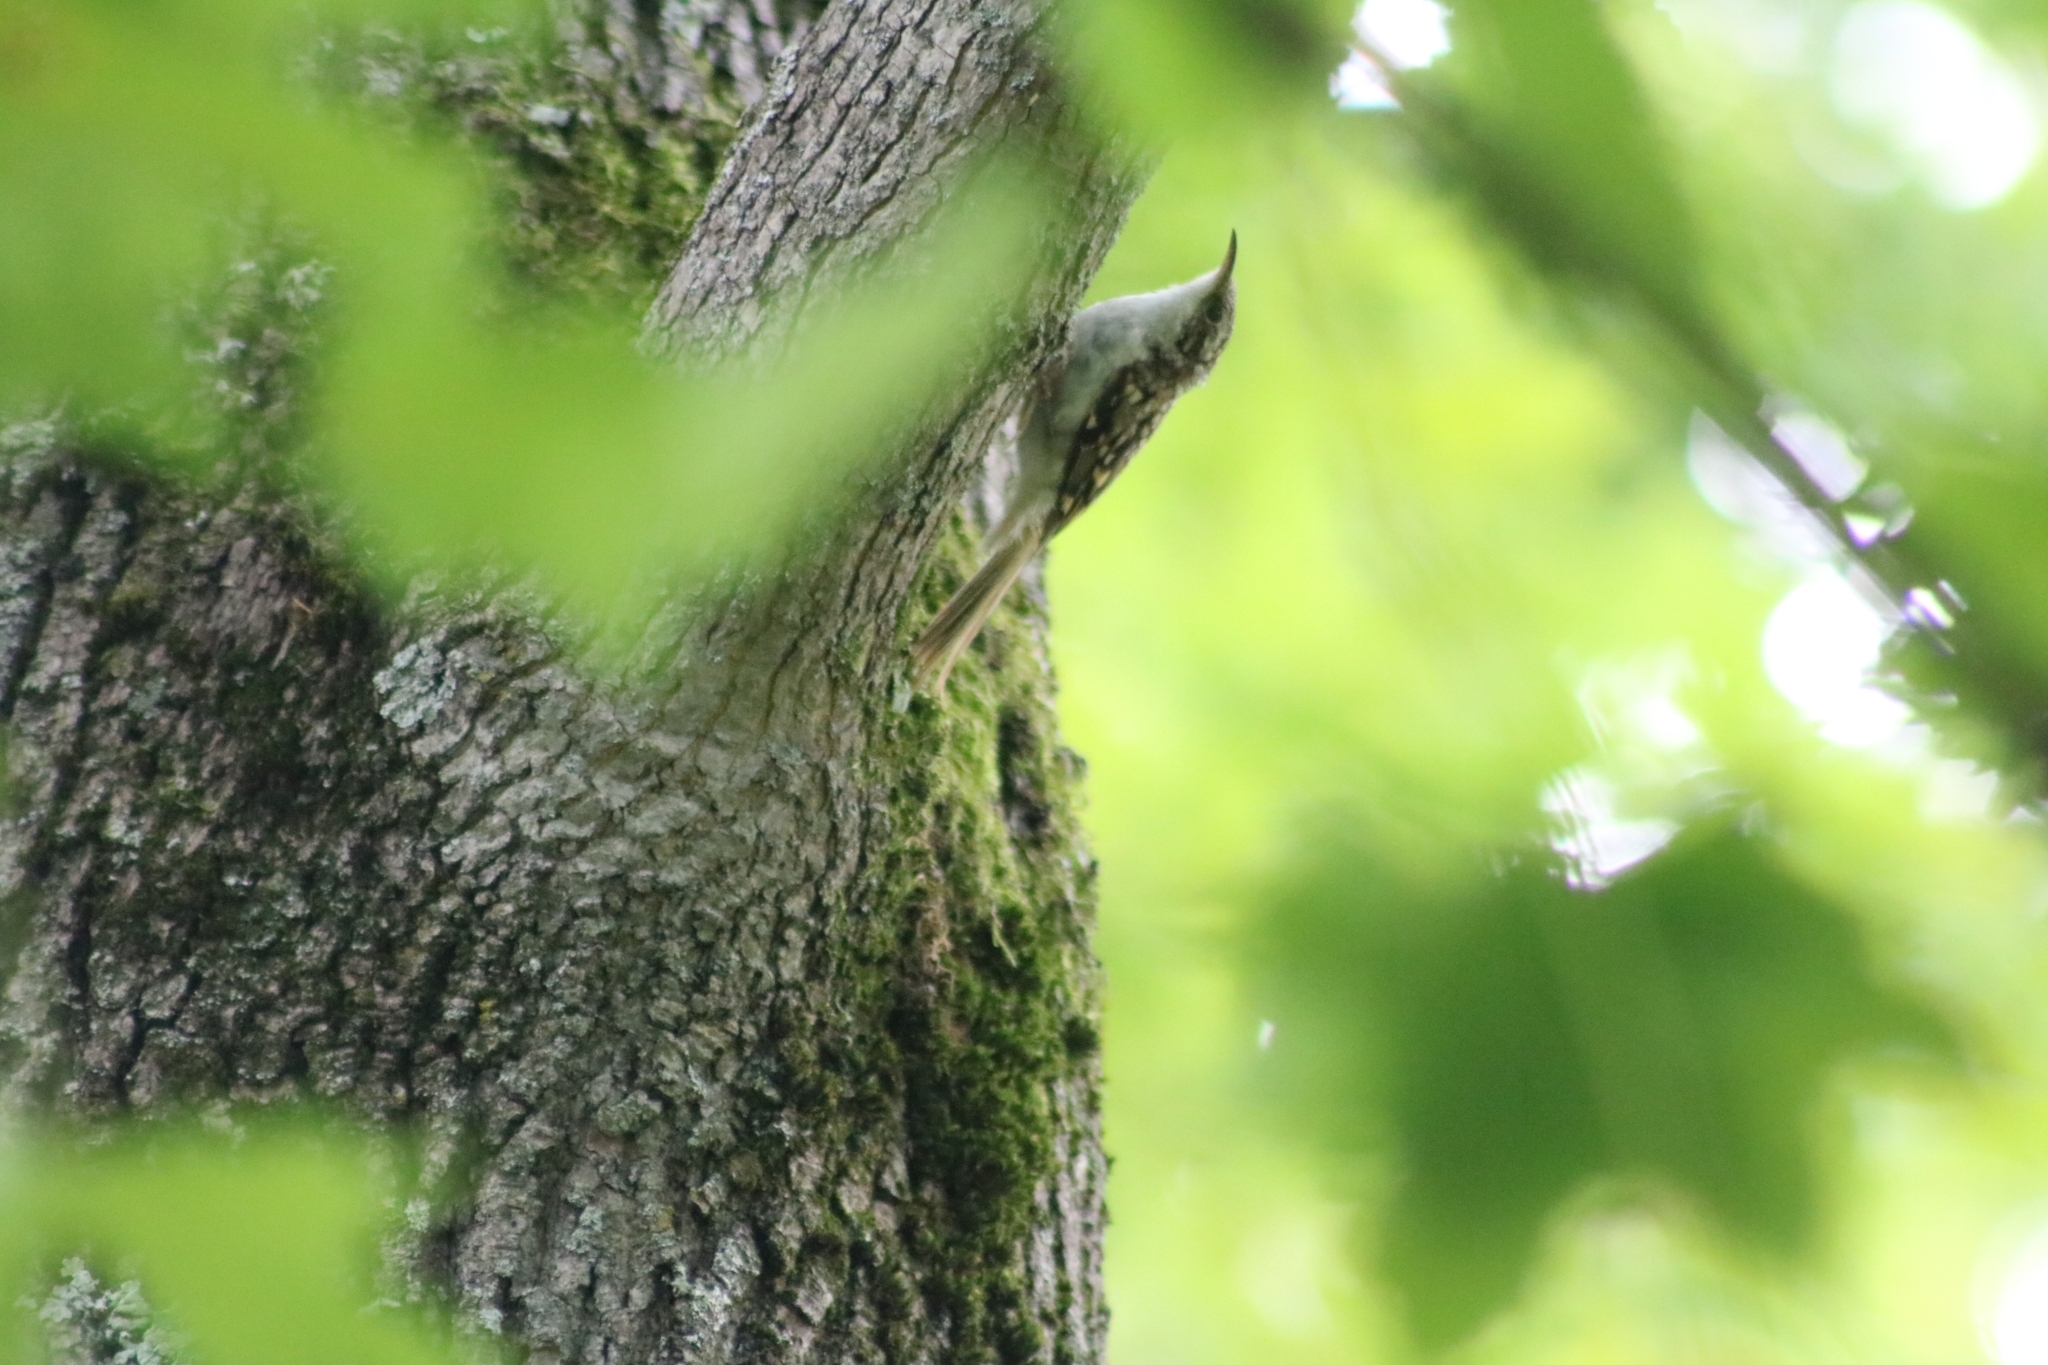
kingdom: Animalia
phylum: Chordata
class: Aves
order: Passeriformes
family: Certhiidae
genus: Certhia
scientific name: Certhia familiaris
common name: Eurasian treecreeper
